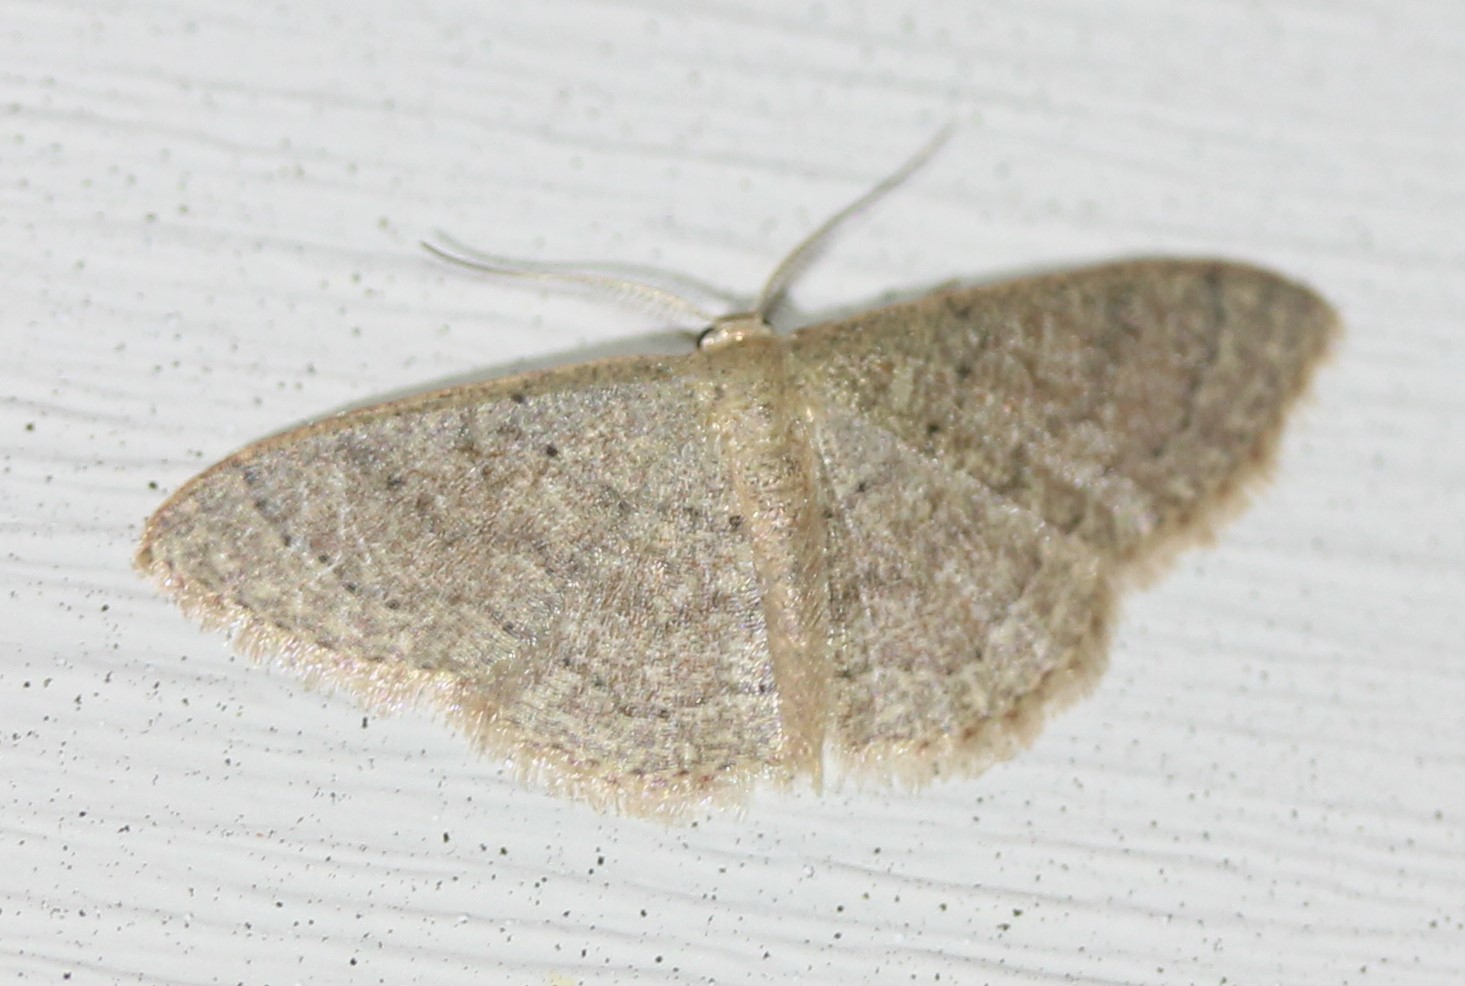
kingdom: Animalia
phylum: Arthropoda
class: Insecta
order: Lepidoptera
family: Geometridae
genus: Pleuroprucha
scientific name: Pleuroprucha insulsaria
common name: Common tan wave
